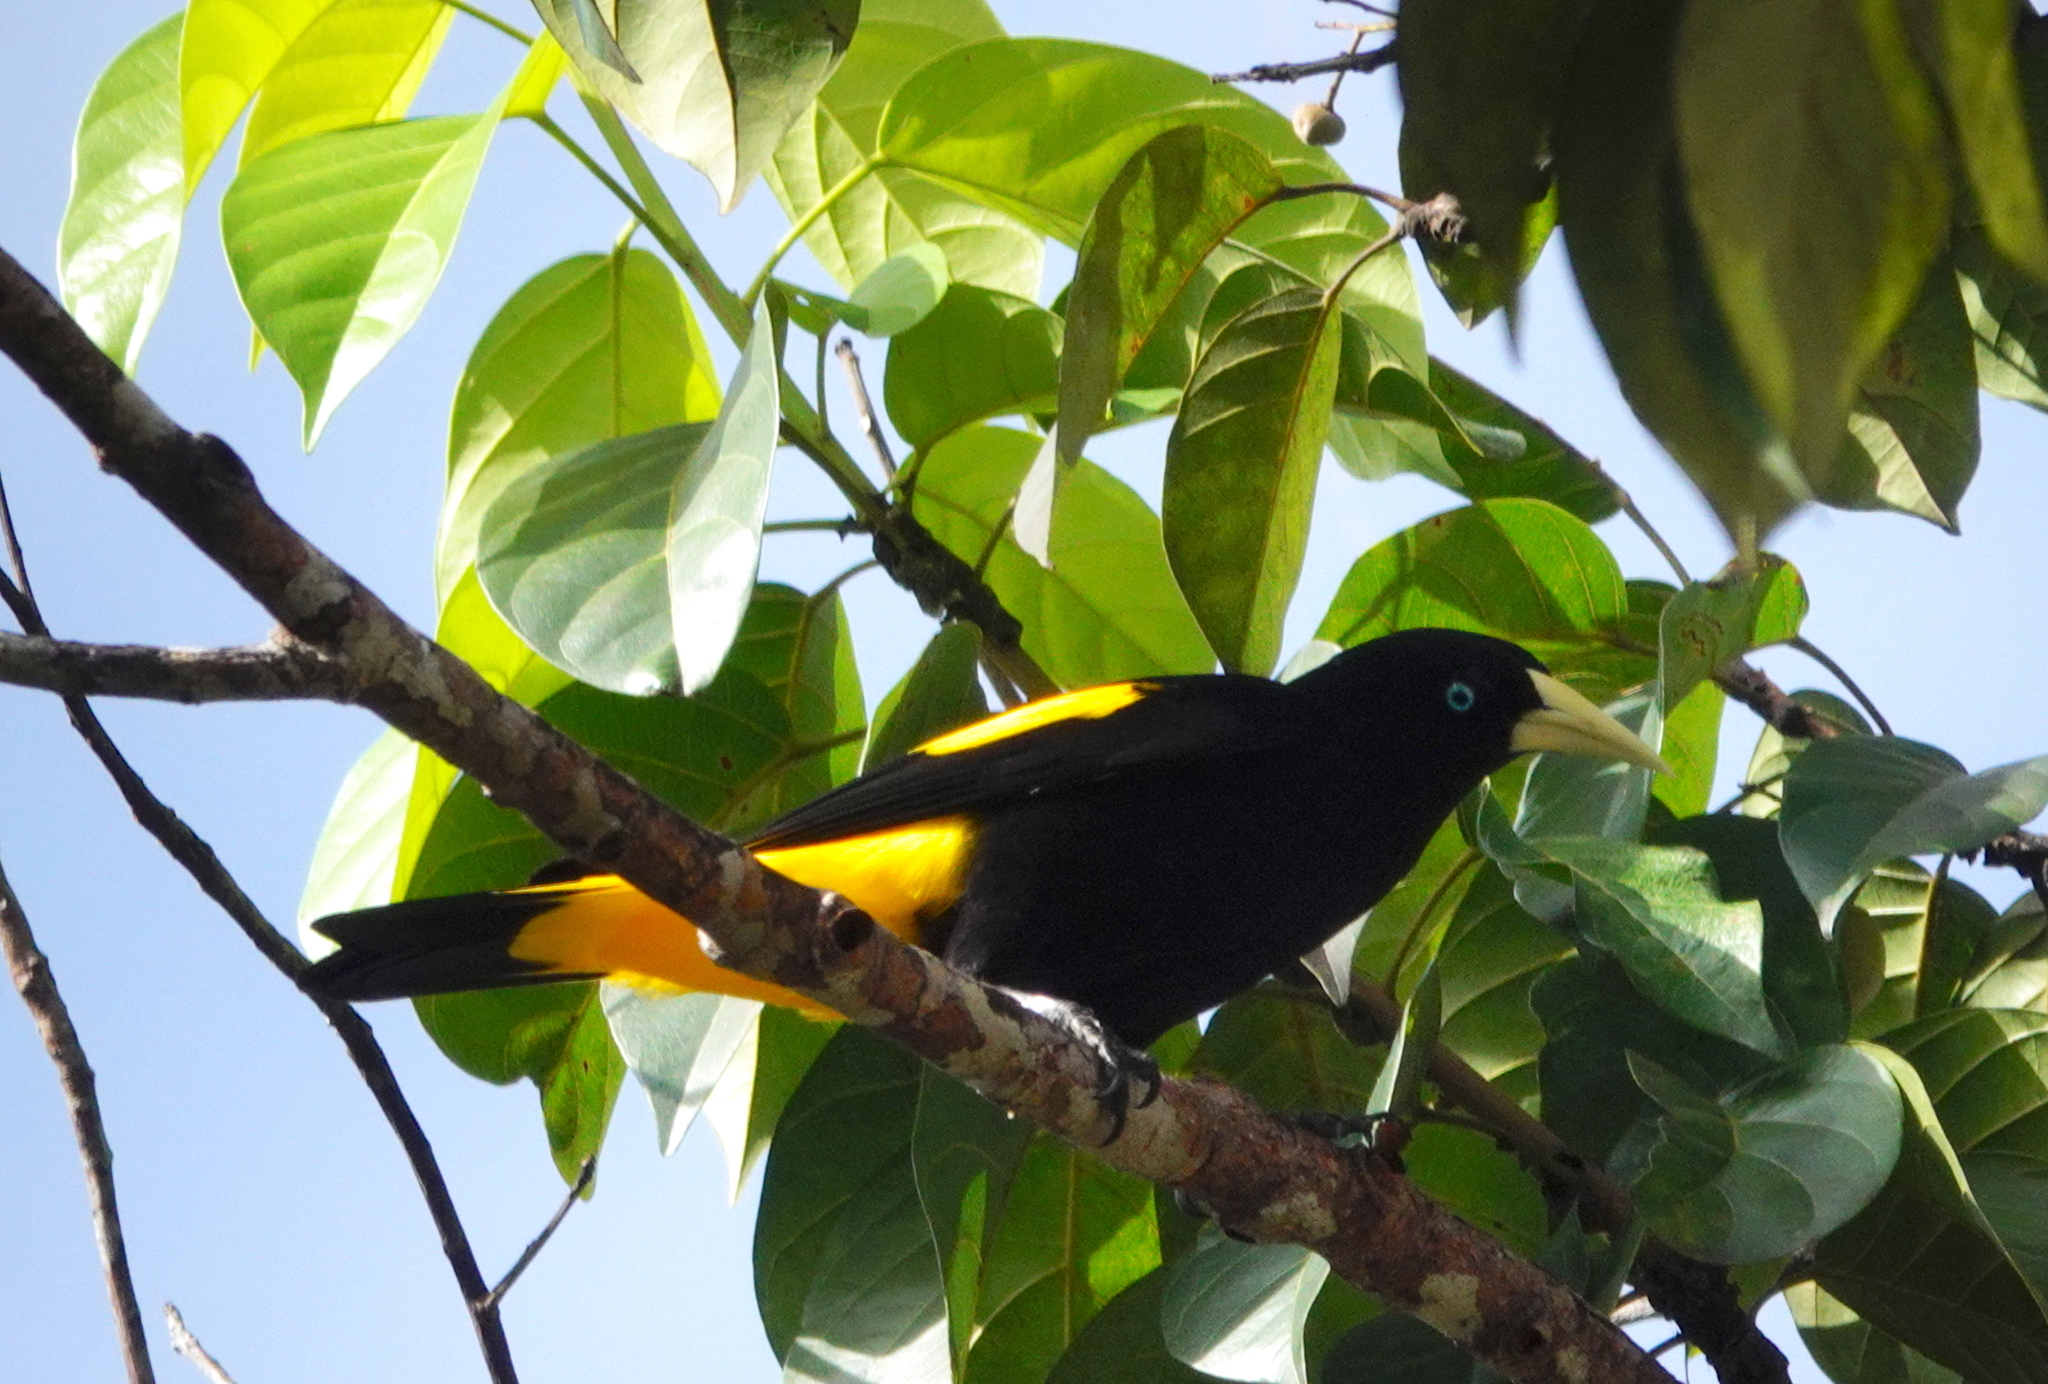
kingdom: Animalia
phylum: Chordata
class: Aves
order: Passeriformes
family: Icteridae
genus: Cacicus
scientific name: Cacicus cela
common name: Yellow-rumped cacique
